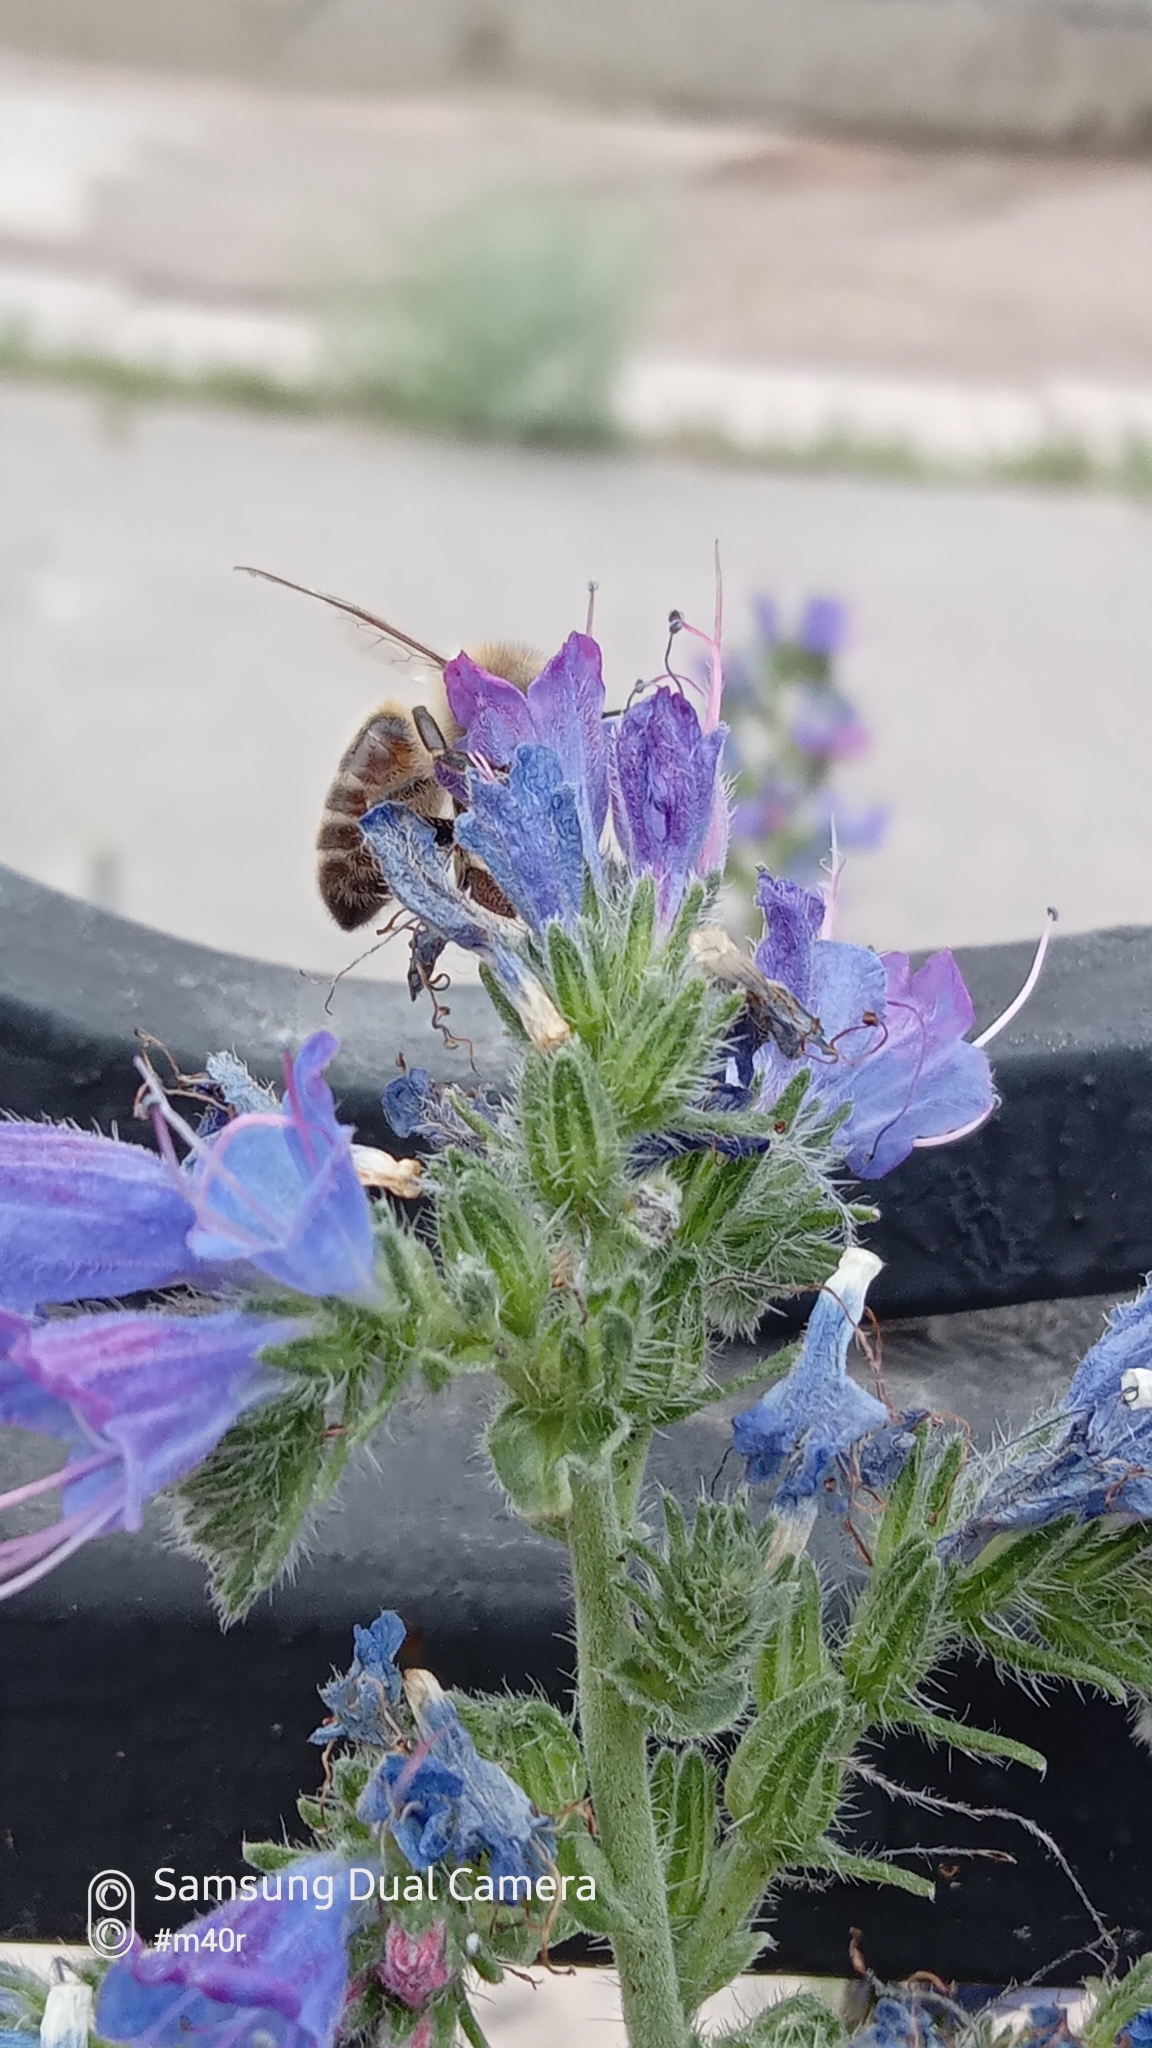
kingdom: Animalia
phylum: Arthropoda
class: Insecta
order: Hymenoptera
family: Apidae
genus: Apis
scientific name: Apis mellifera
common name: Honey bee
